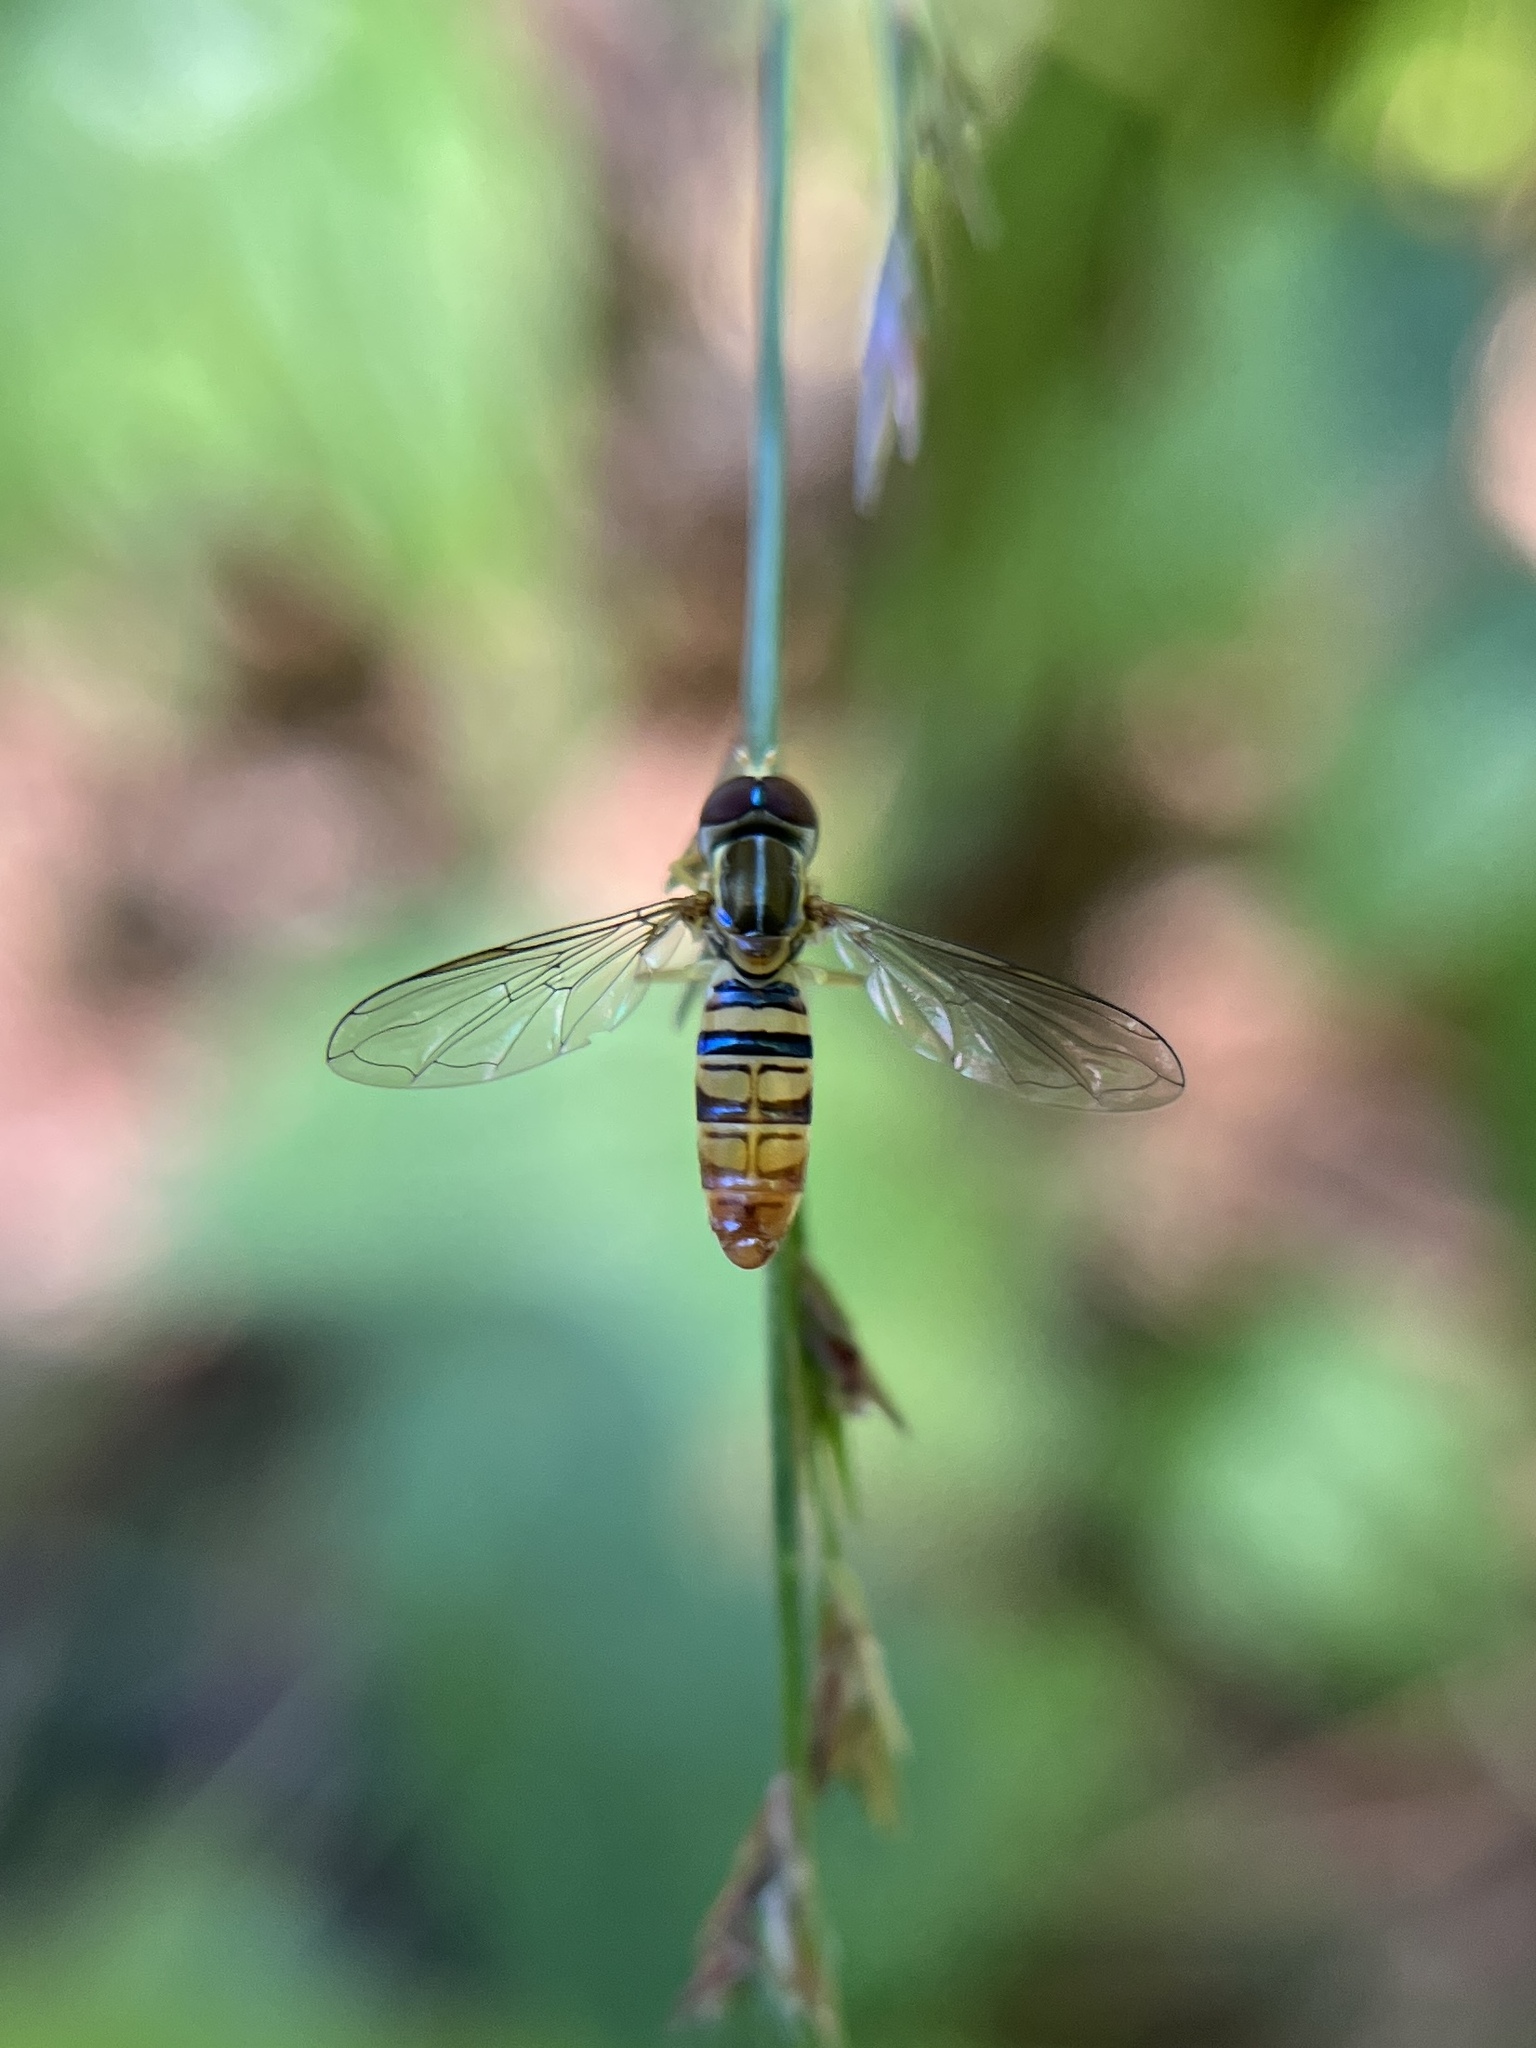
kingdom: Animalia
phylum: Arthropoda
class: Insecta
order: Diptera
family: Syrphidae
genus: Toxomerus
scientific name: Toxomerus politus
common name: Maize calligrapher
